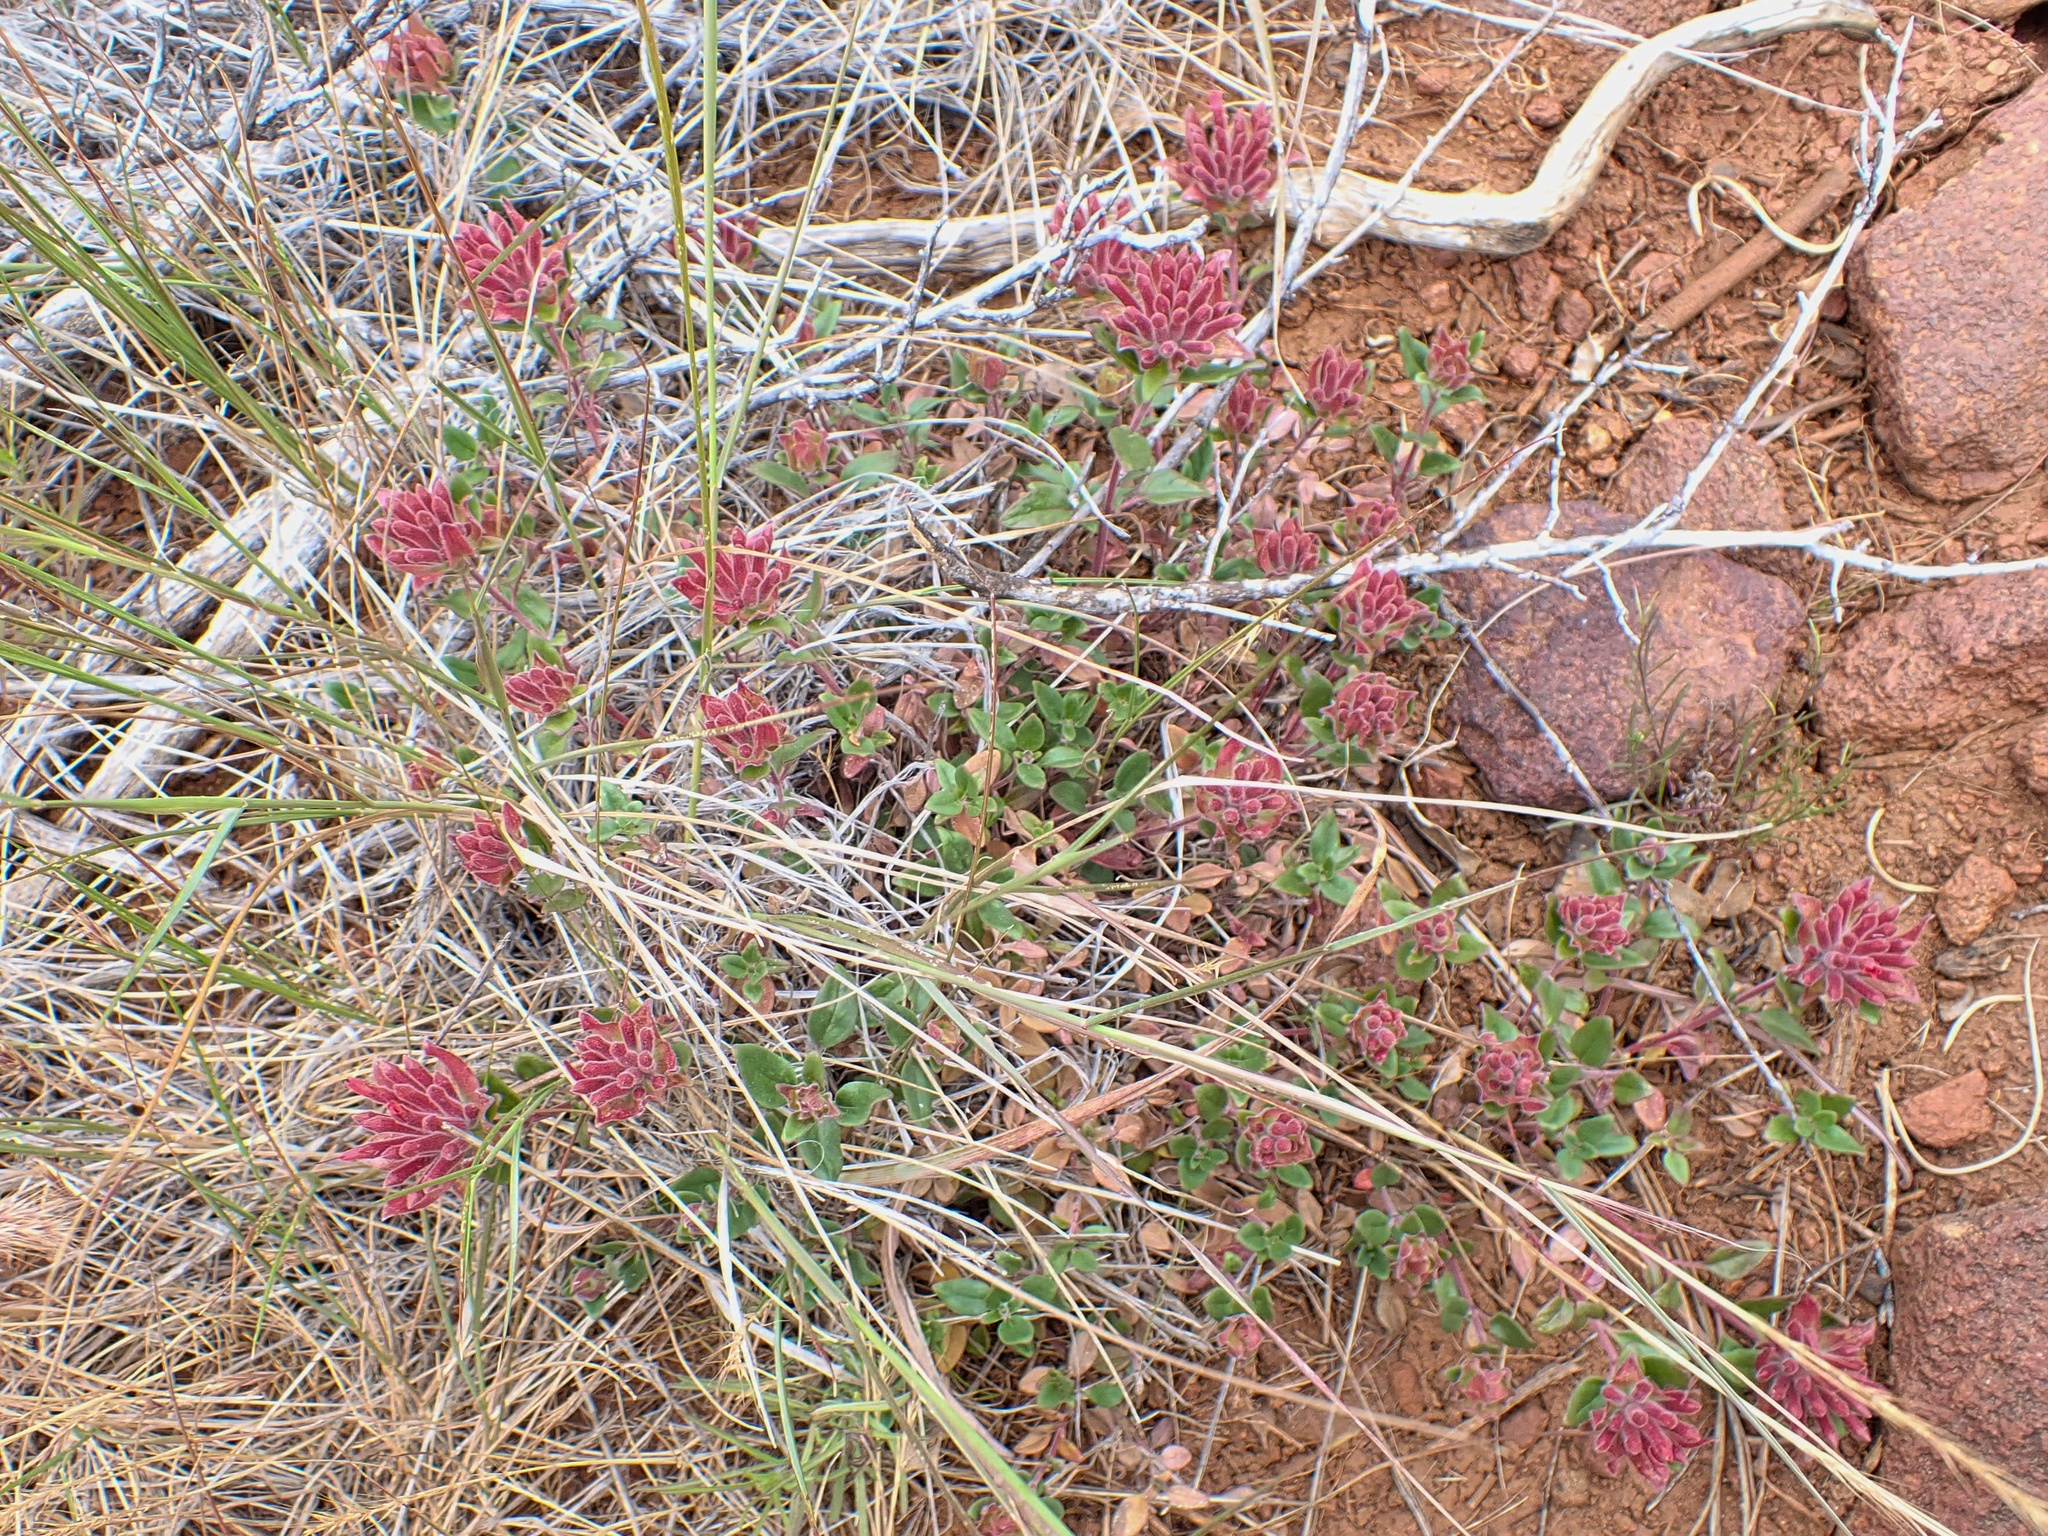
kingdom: Plantae
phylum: Tracheophyta
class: Magnoliopsida
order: Lamiales
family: Lamiaceae
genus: Monardella
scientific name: Monardella macrantha
